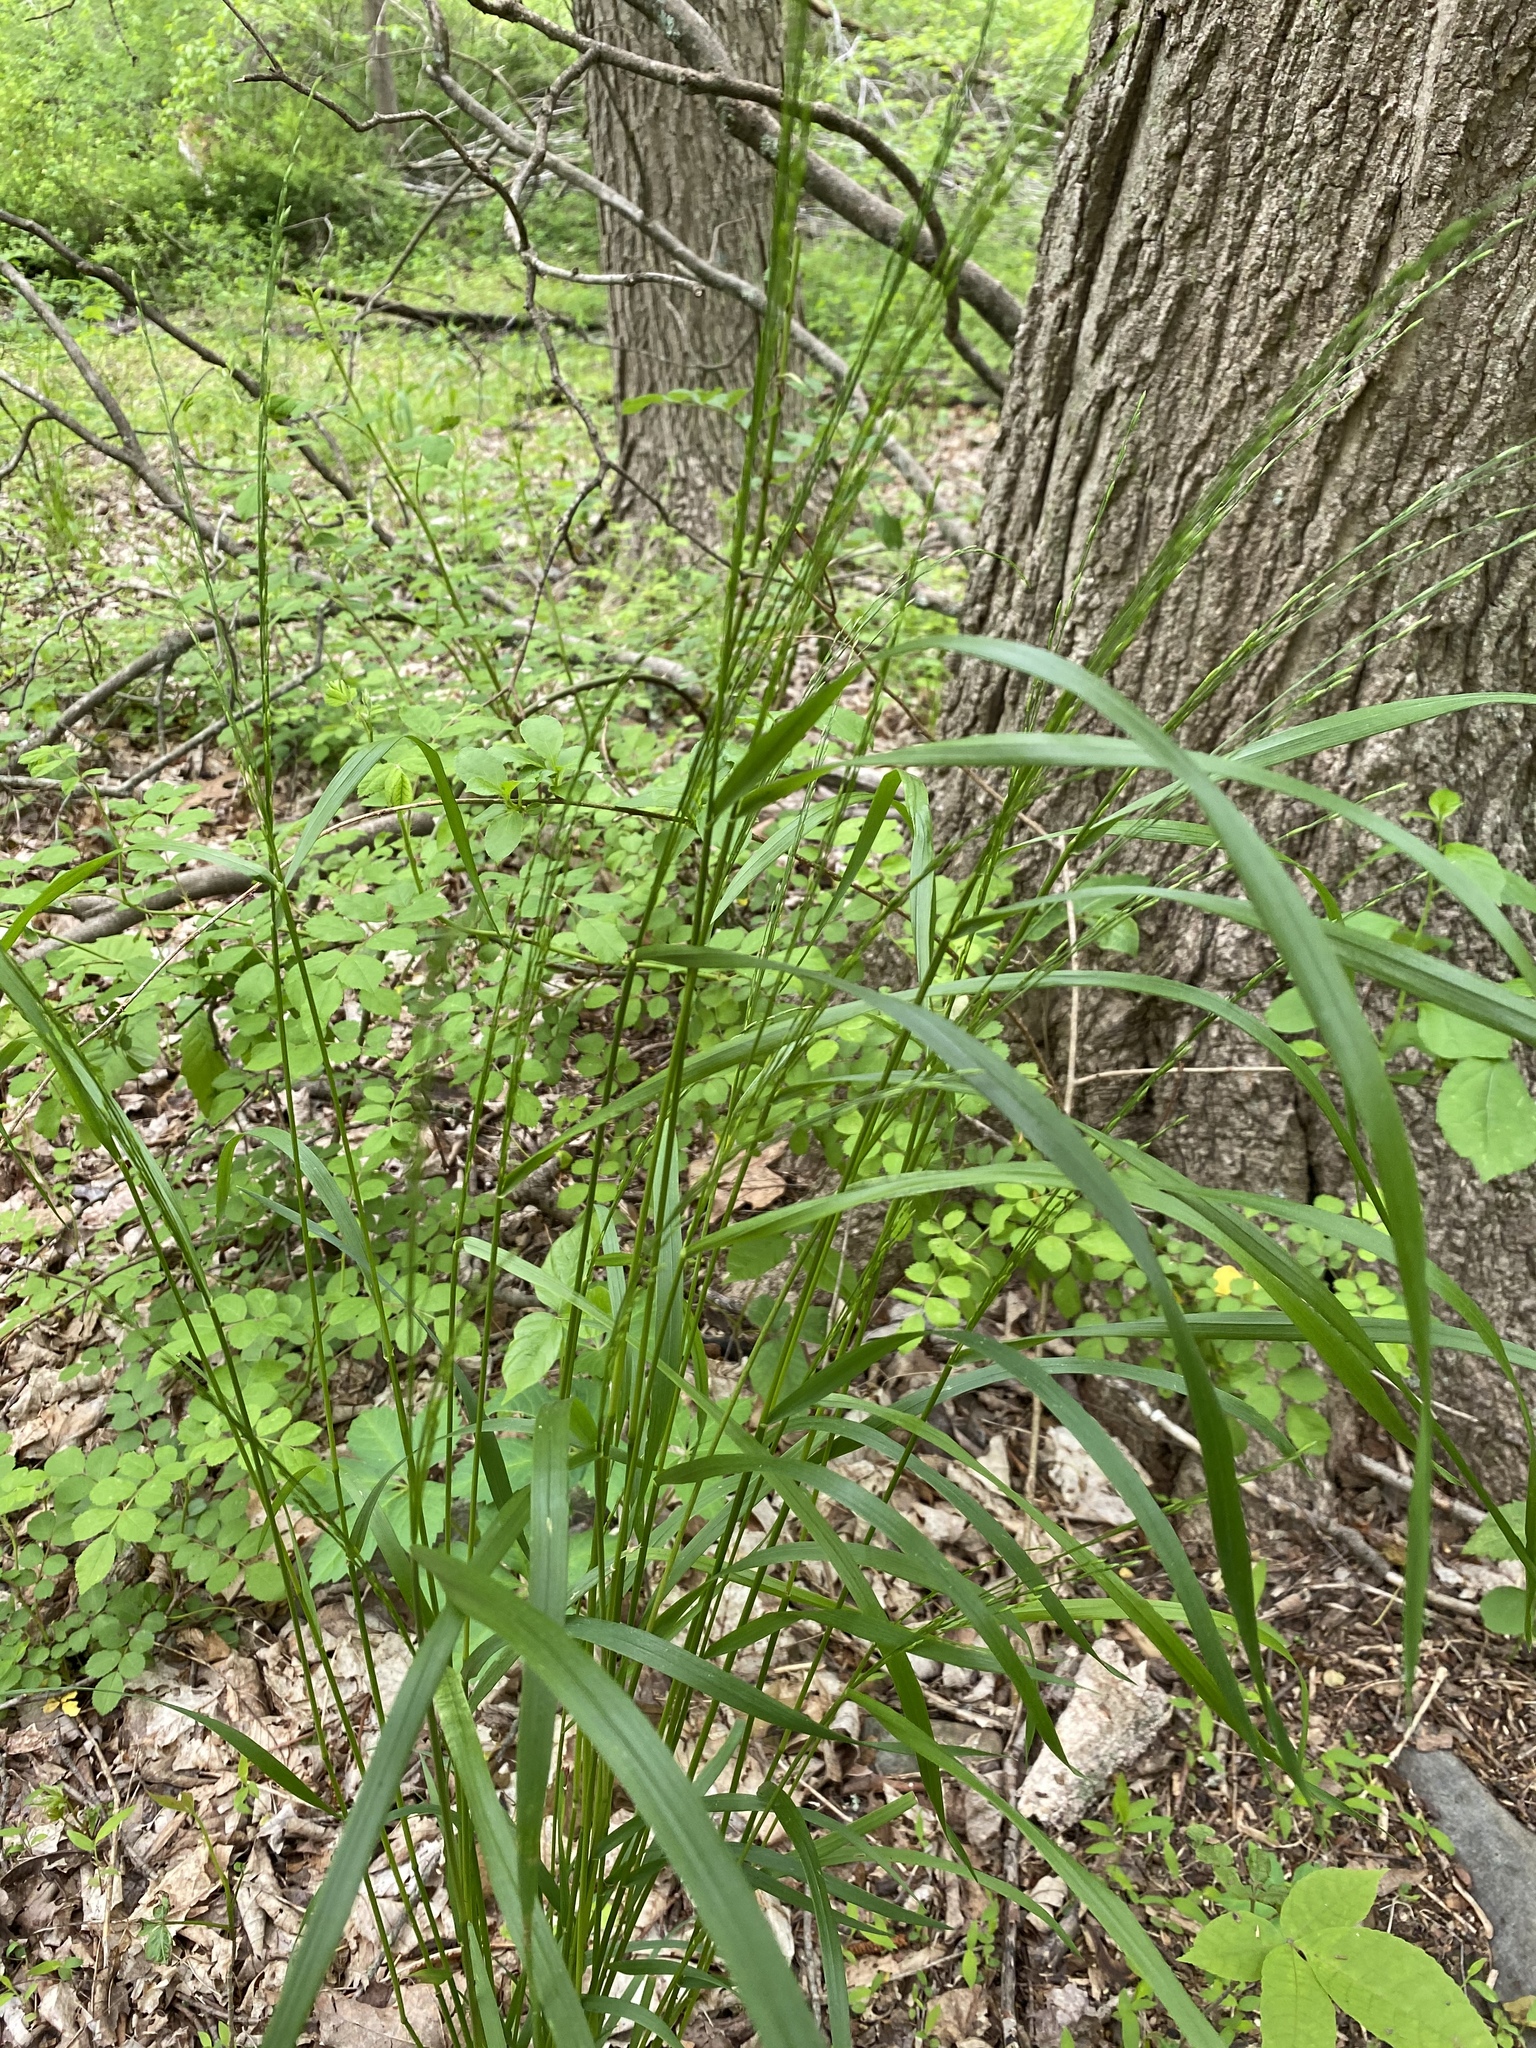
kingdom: Plantae
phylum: Tracheophyta
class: Liliopsida
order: Poales
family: Poaceae
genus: Festuca
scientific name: Festuca subverticillata
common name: Nodding fescue
